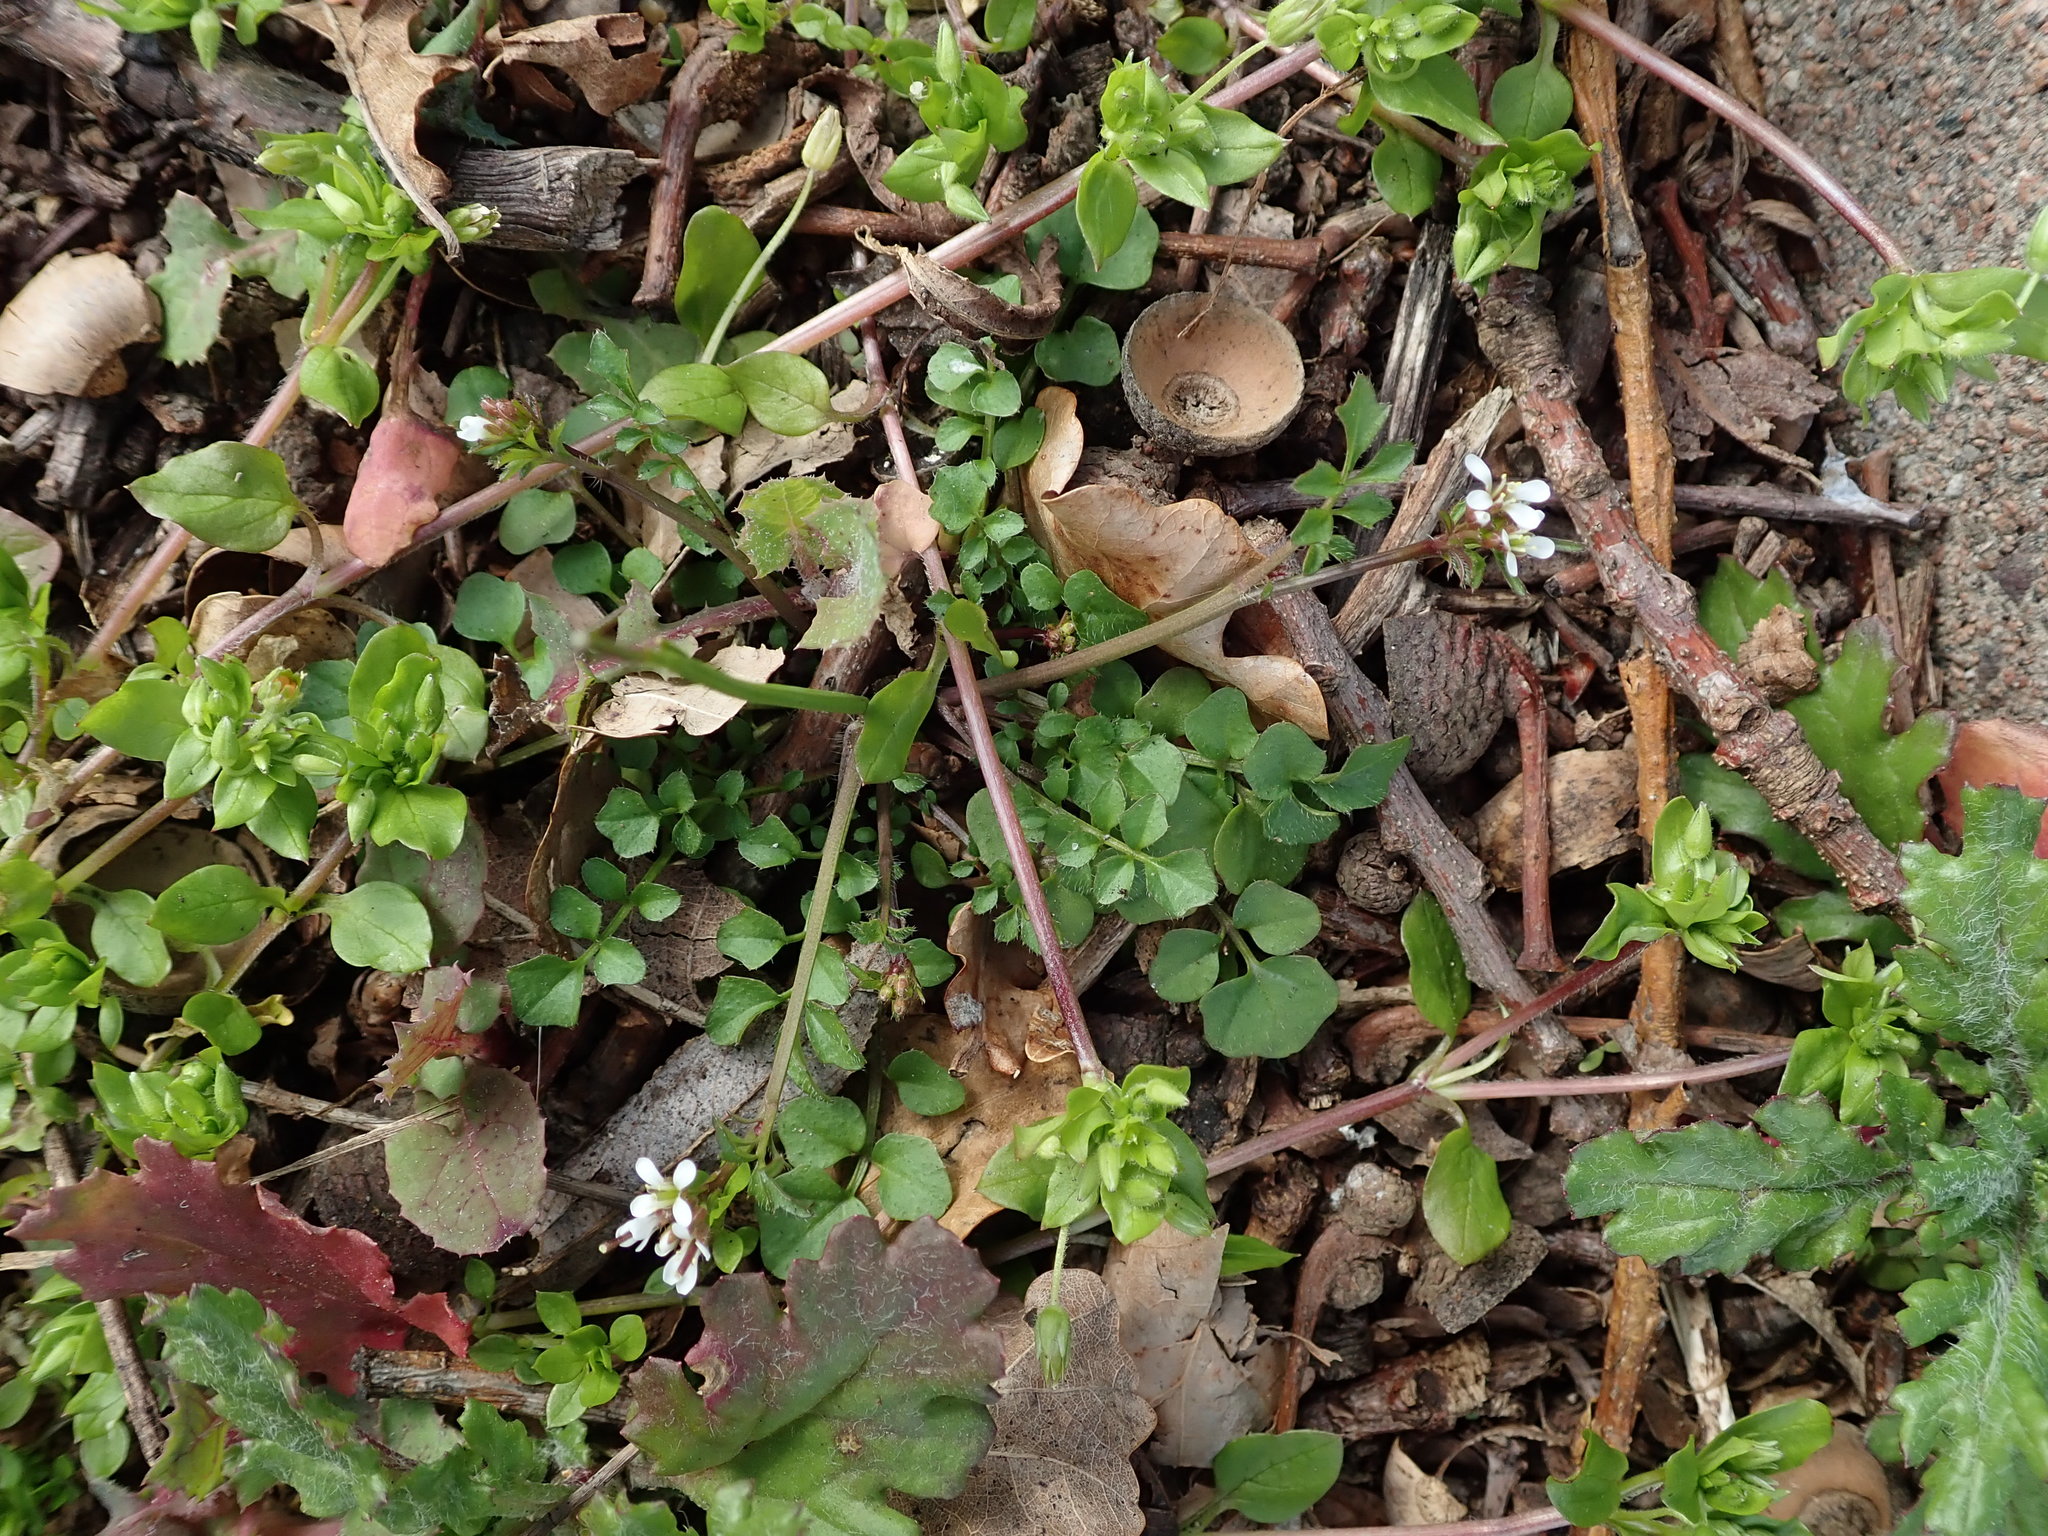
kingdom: Plantae
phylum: Tracheophyta
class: Magnoliopsida
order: Brassicales
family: Brassicaceae
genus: Cardamine
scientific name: Cardamine hirsuta
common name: Hairy bittercress
